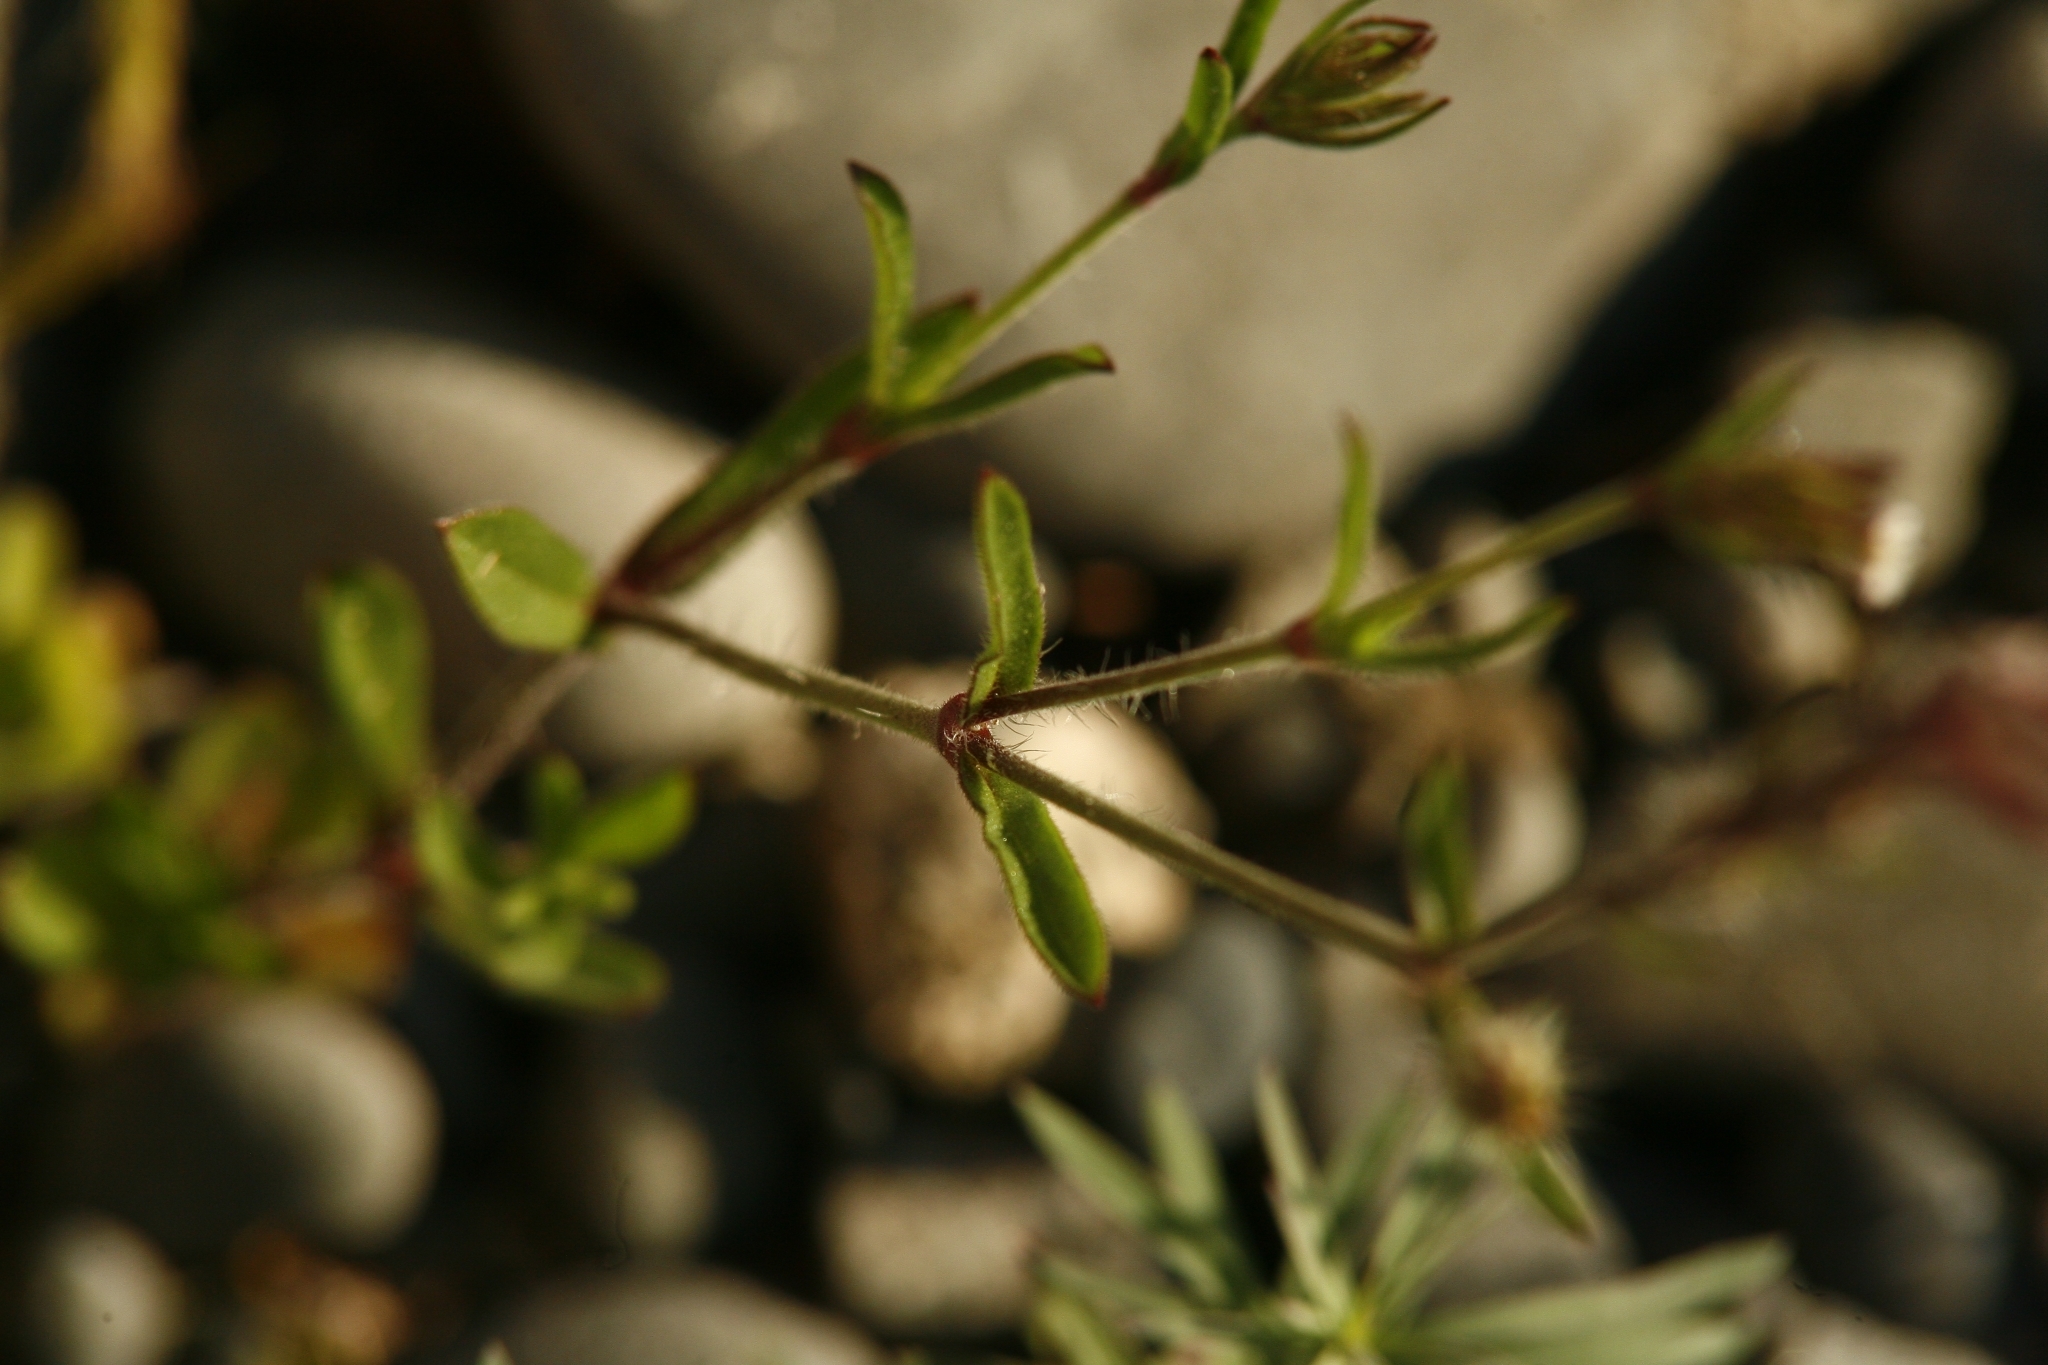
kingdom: Plantae
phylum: Tracheophyta
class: Magnoliopsida
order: Caryophyllales
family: Caryophyllaceae
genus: Silene
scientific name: Silene gallica
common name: Small-flowered catchfly
